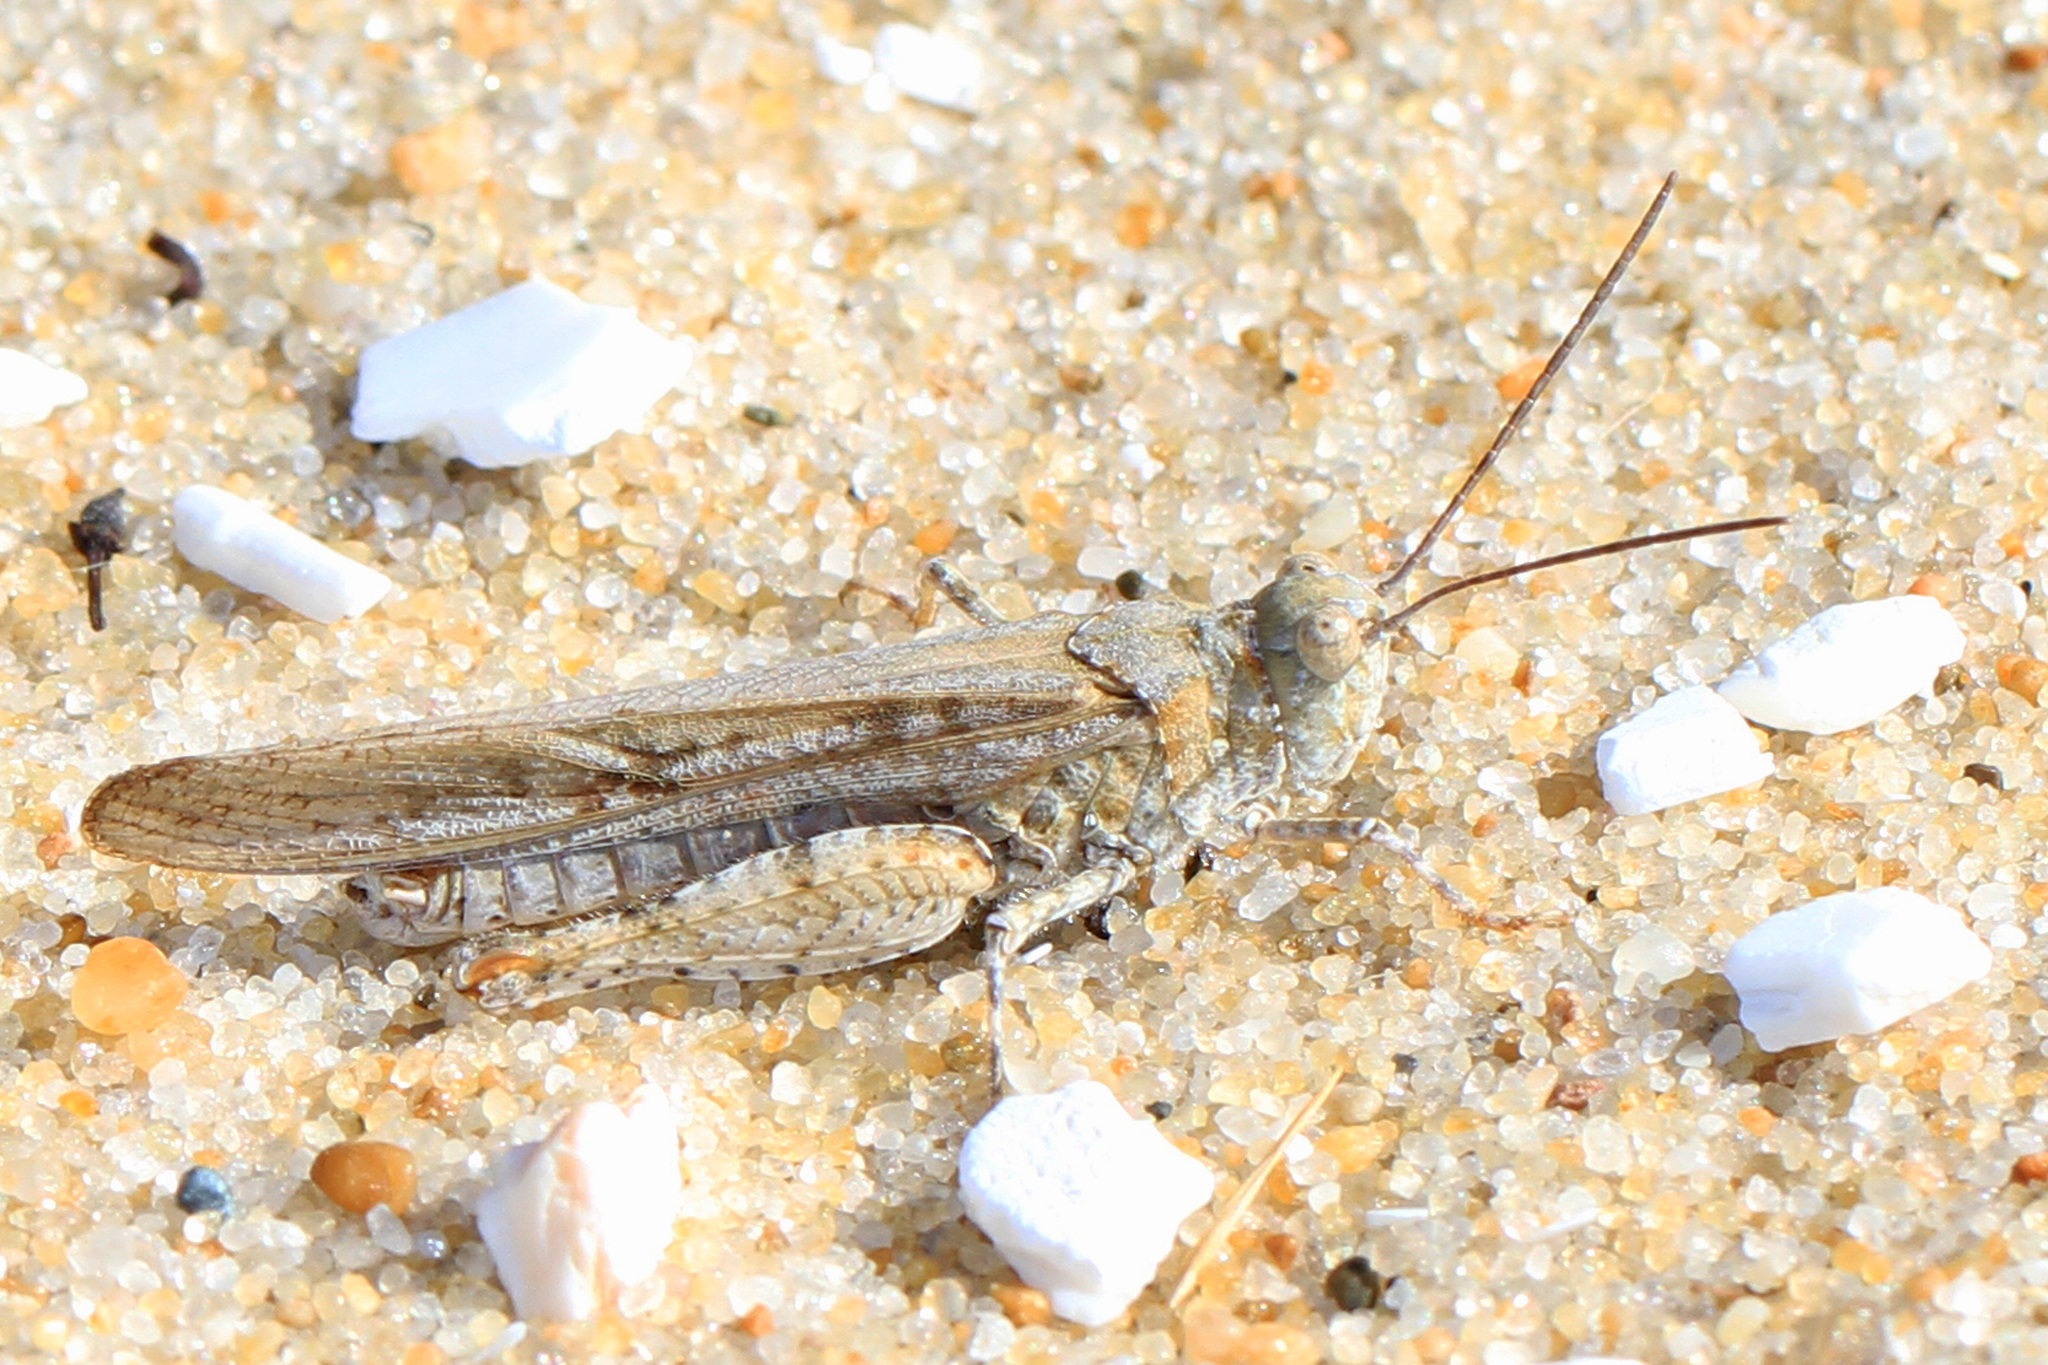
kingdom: Animalia
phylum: Arthropoda
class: Insecta
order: Orthoptera
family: Acrididae
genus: Trimerotropis
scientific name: Trimerotropis maritima
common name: Seaside locust
